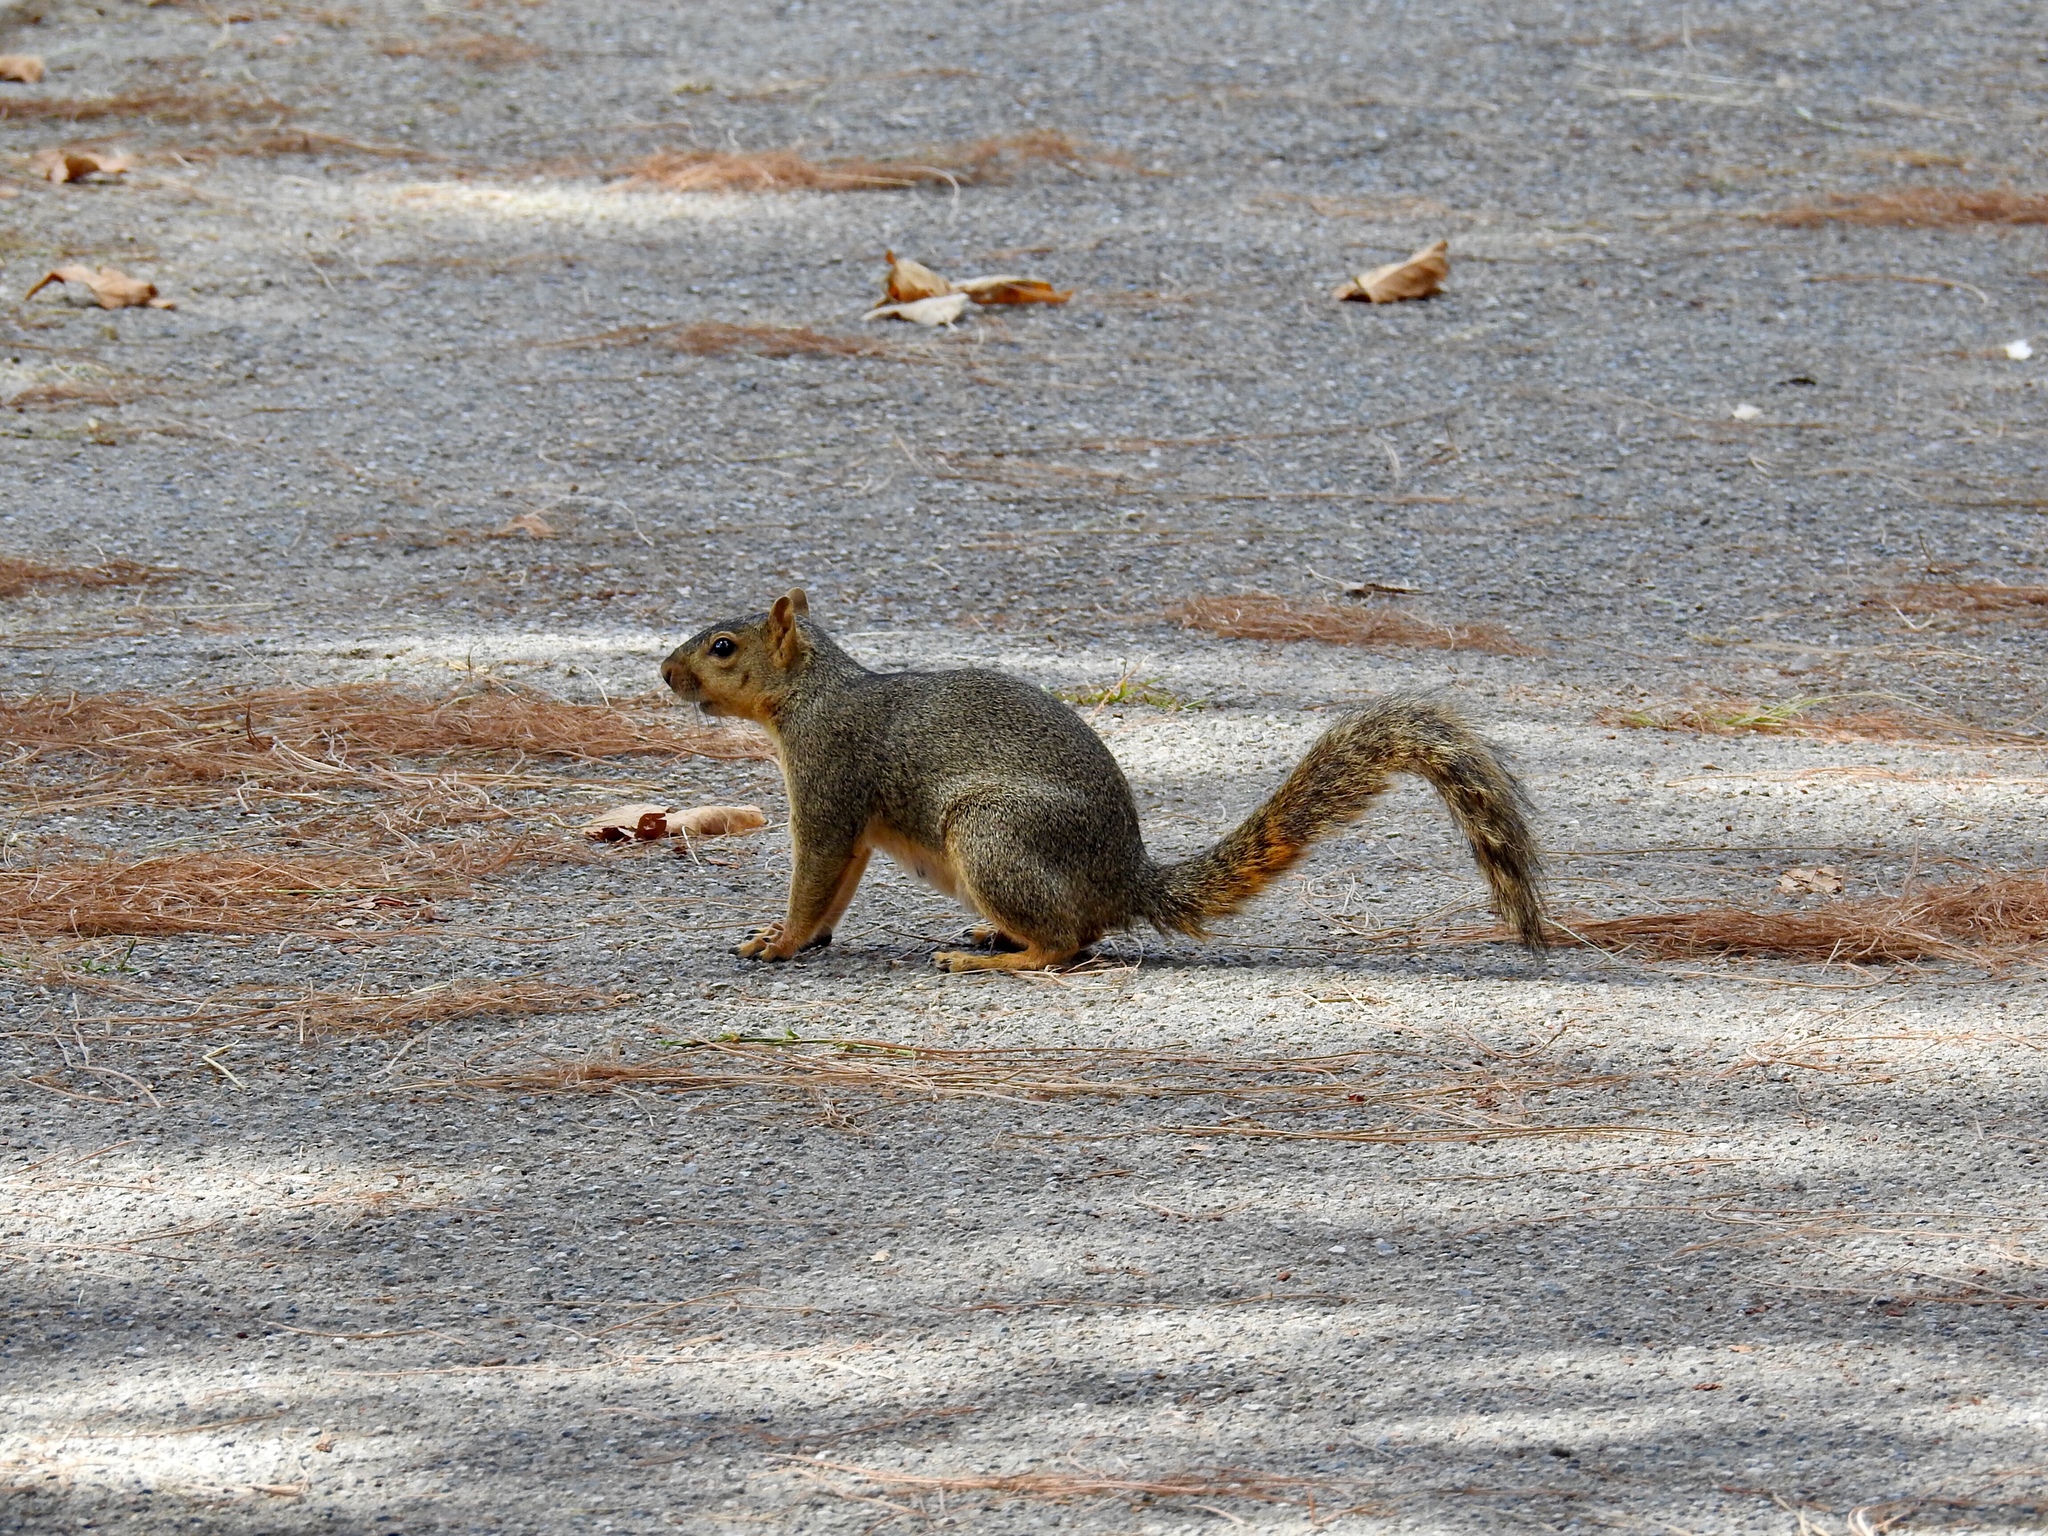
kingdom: Animalia
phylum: Chordata
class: Mammalia
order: Rodentia
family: Sciuridae
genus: Sciurus
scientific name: Sciurus niger
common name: Fox squirrel
